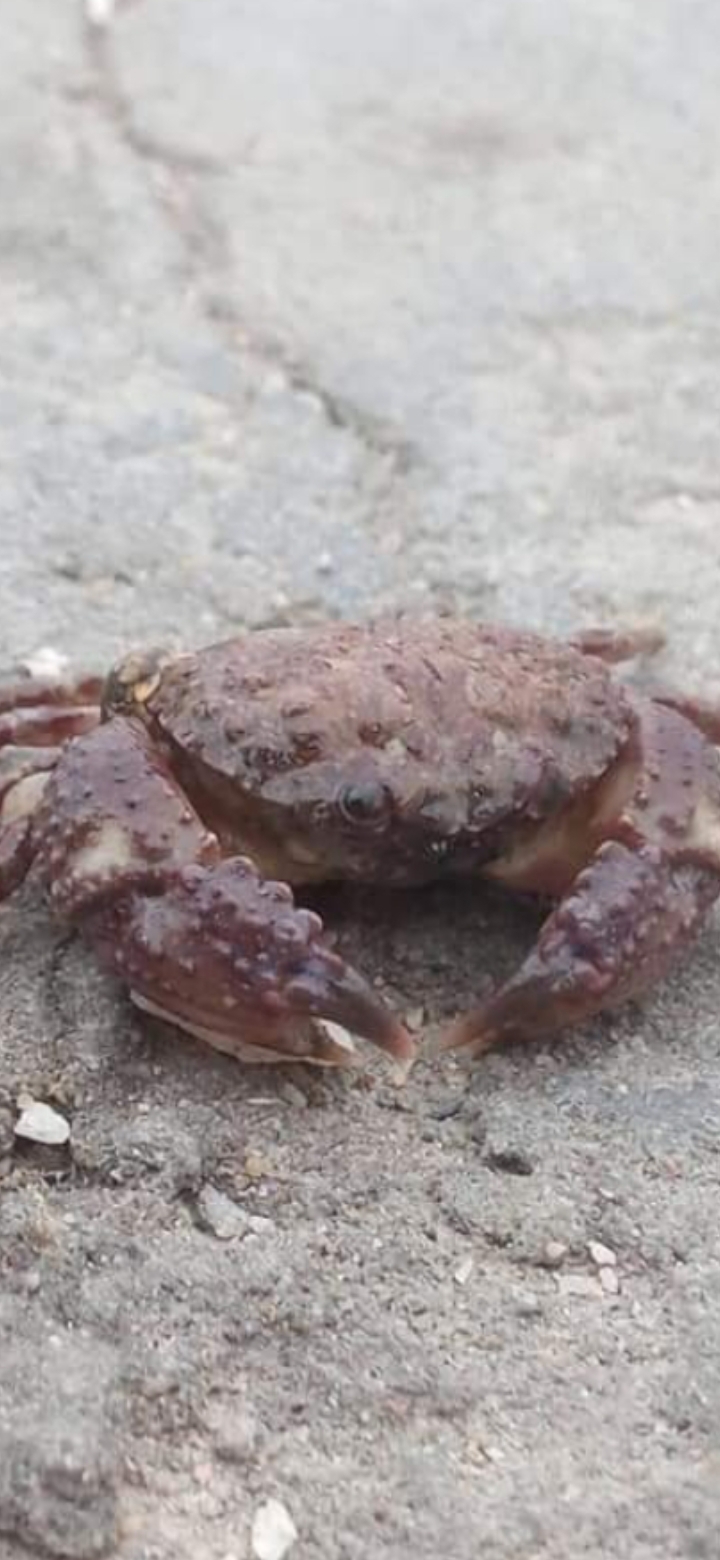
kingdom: Animalia
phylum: Arthropoda
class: Malacostraca
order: Decapoda
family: Pilumnoididae
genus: Pilumnoides
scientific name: Pilumnoides perlatus
